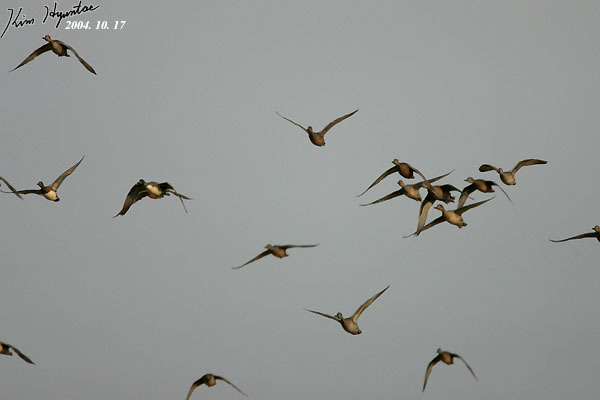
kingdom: Animalia
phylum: Chordata
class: Aves
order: Anseriformes
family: Anatidae
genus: Anas
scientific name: Anas acuta
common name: Northern pintail
